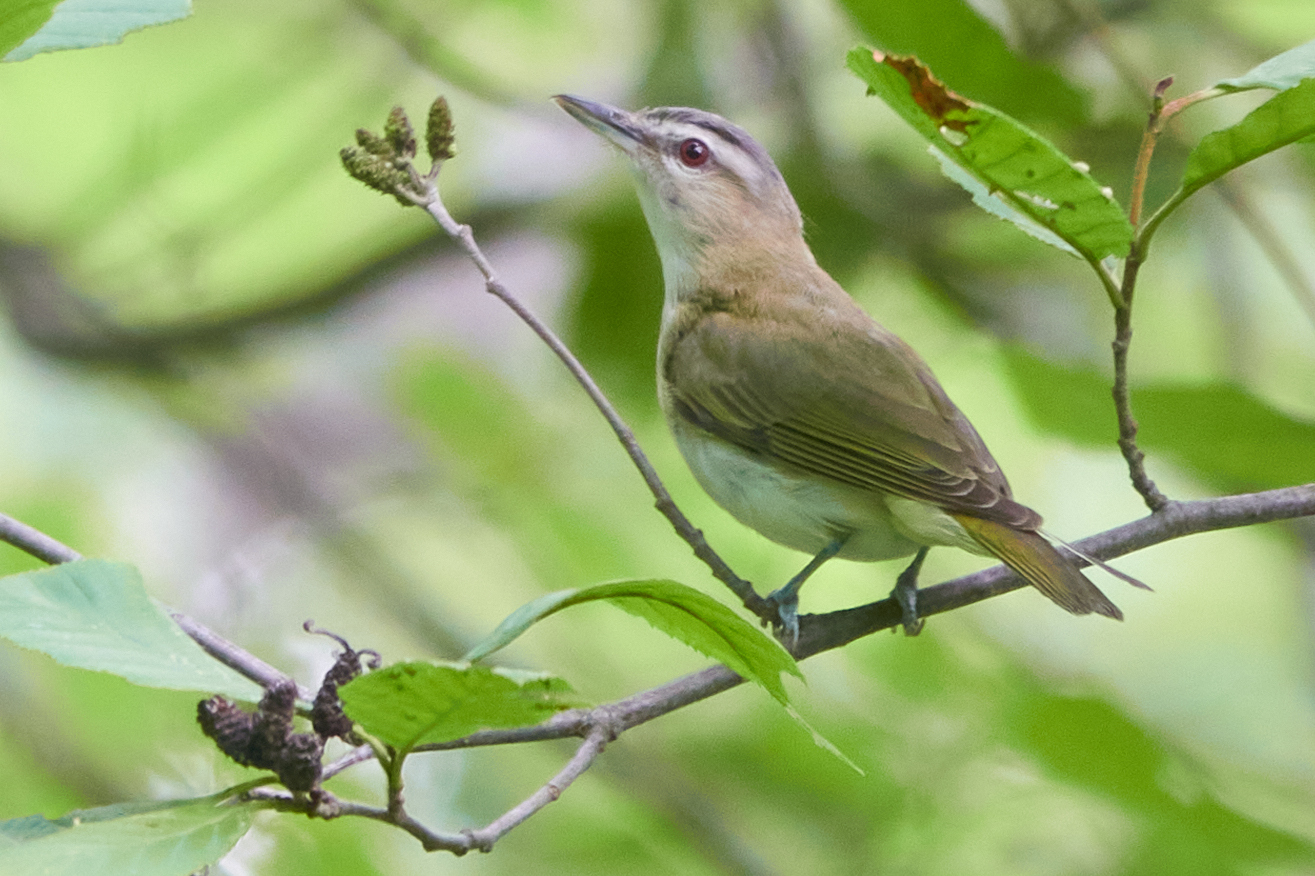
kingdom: Animalia
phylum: Chordata
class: Aves
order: Passeriformes
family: Vireonidae
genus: Vireo
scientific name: Vireo olivaceus
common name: Red-eyed vireo
